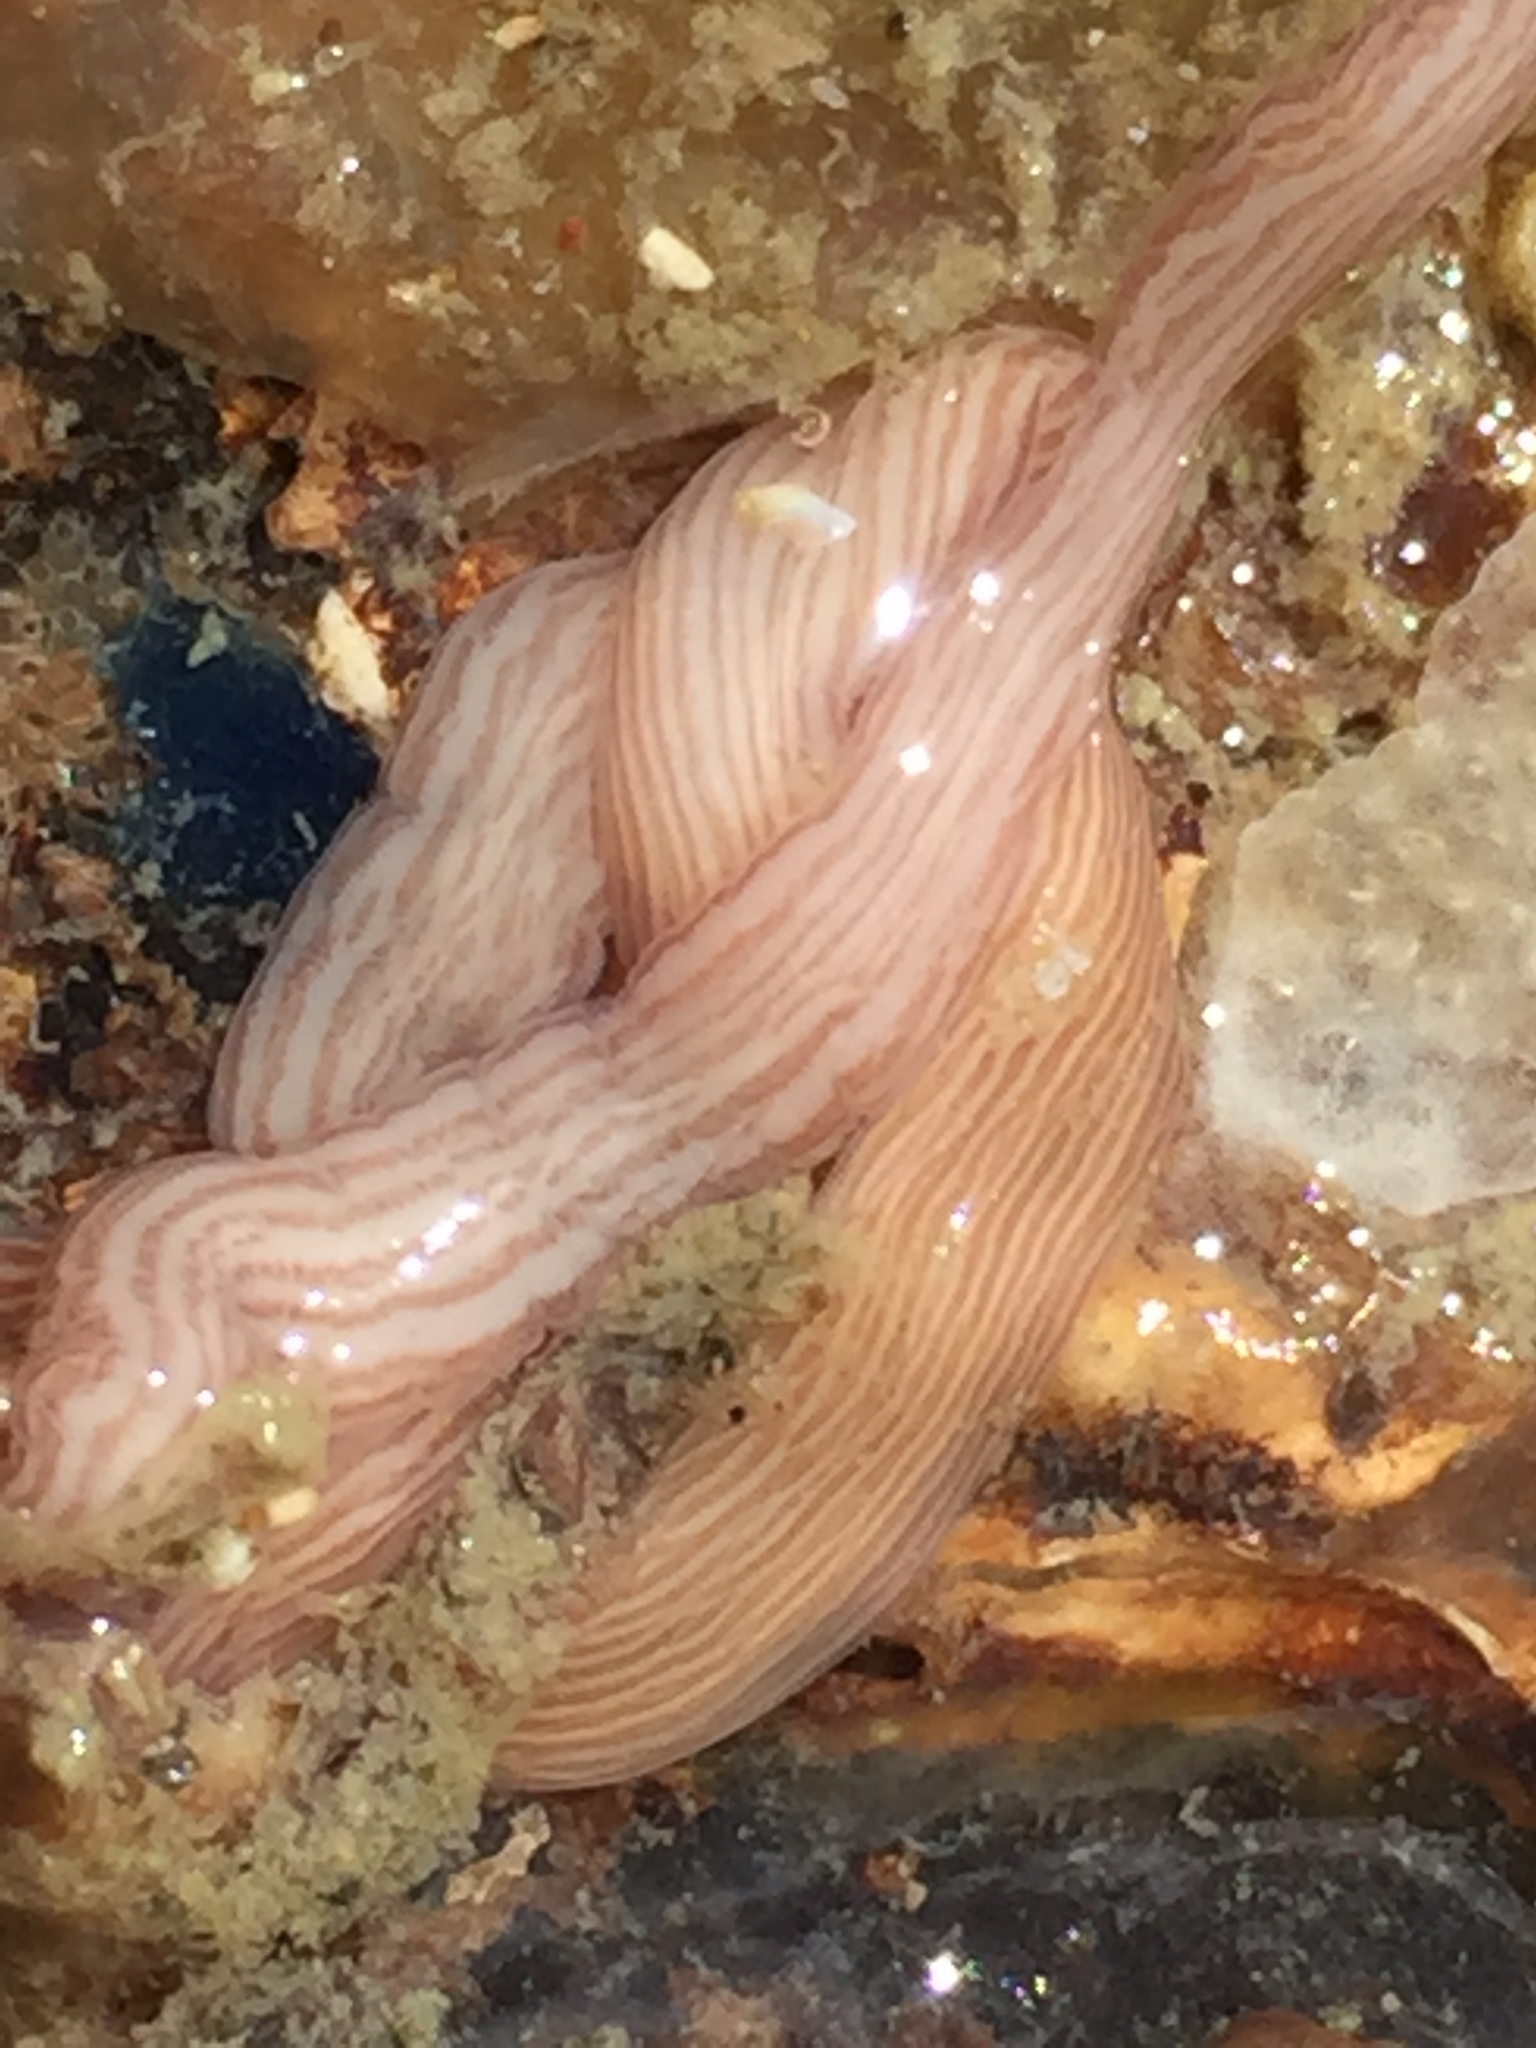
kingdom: Animalia
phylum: Nemertea
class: Pilidiophora
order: Heteronemertea
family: Valenciniidae
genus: Baseodiscus
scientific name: Baseodiscus delineatus
